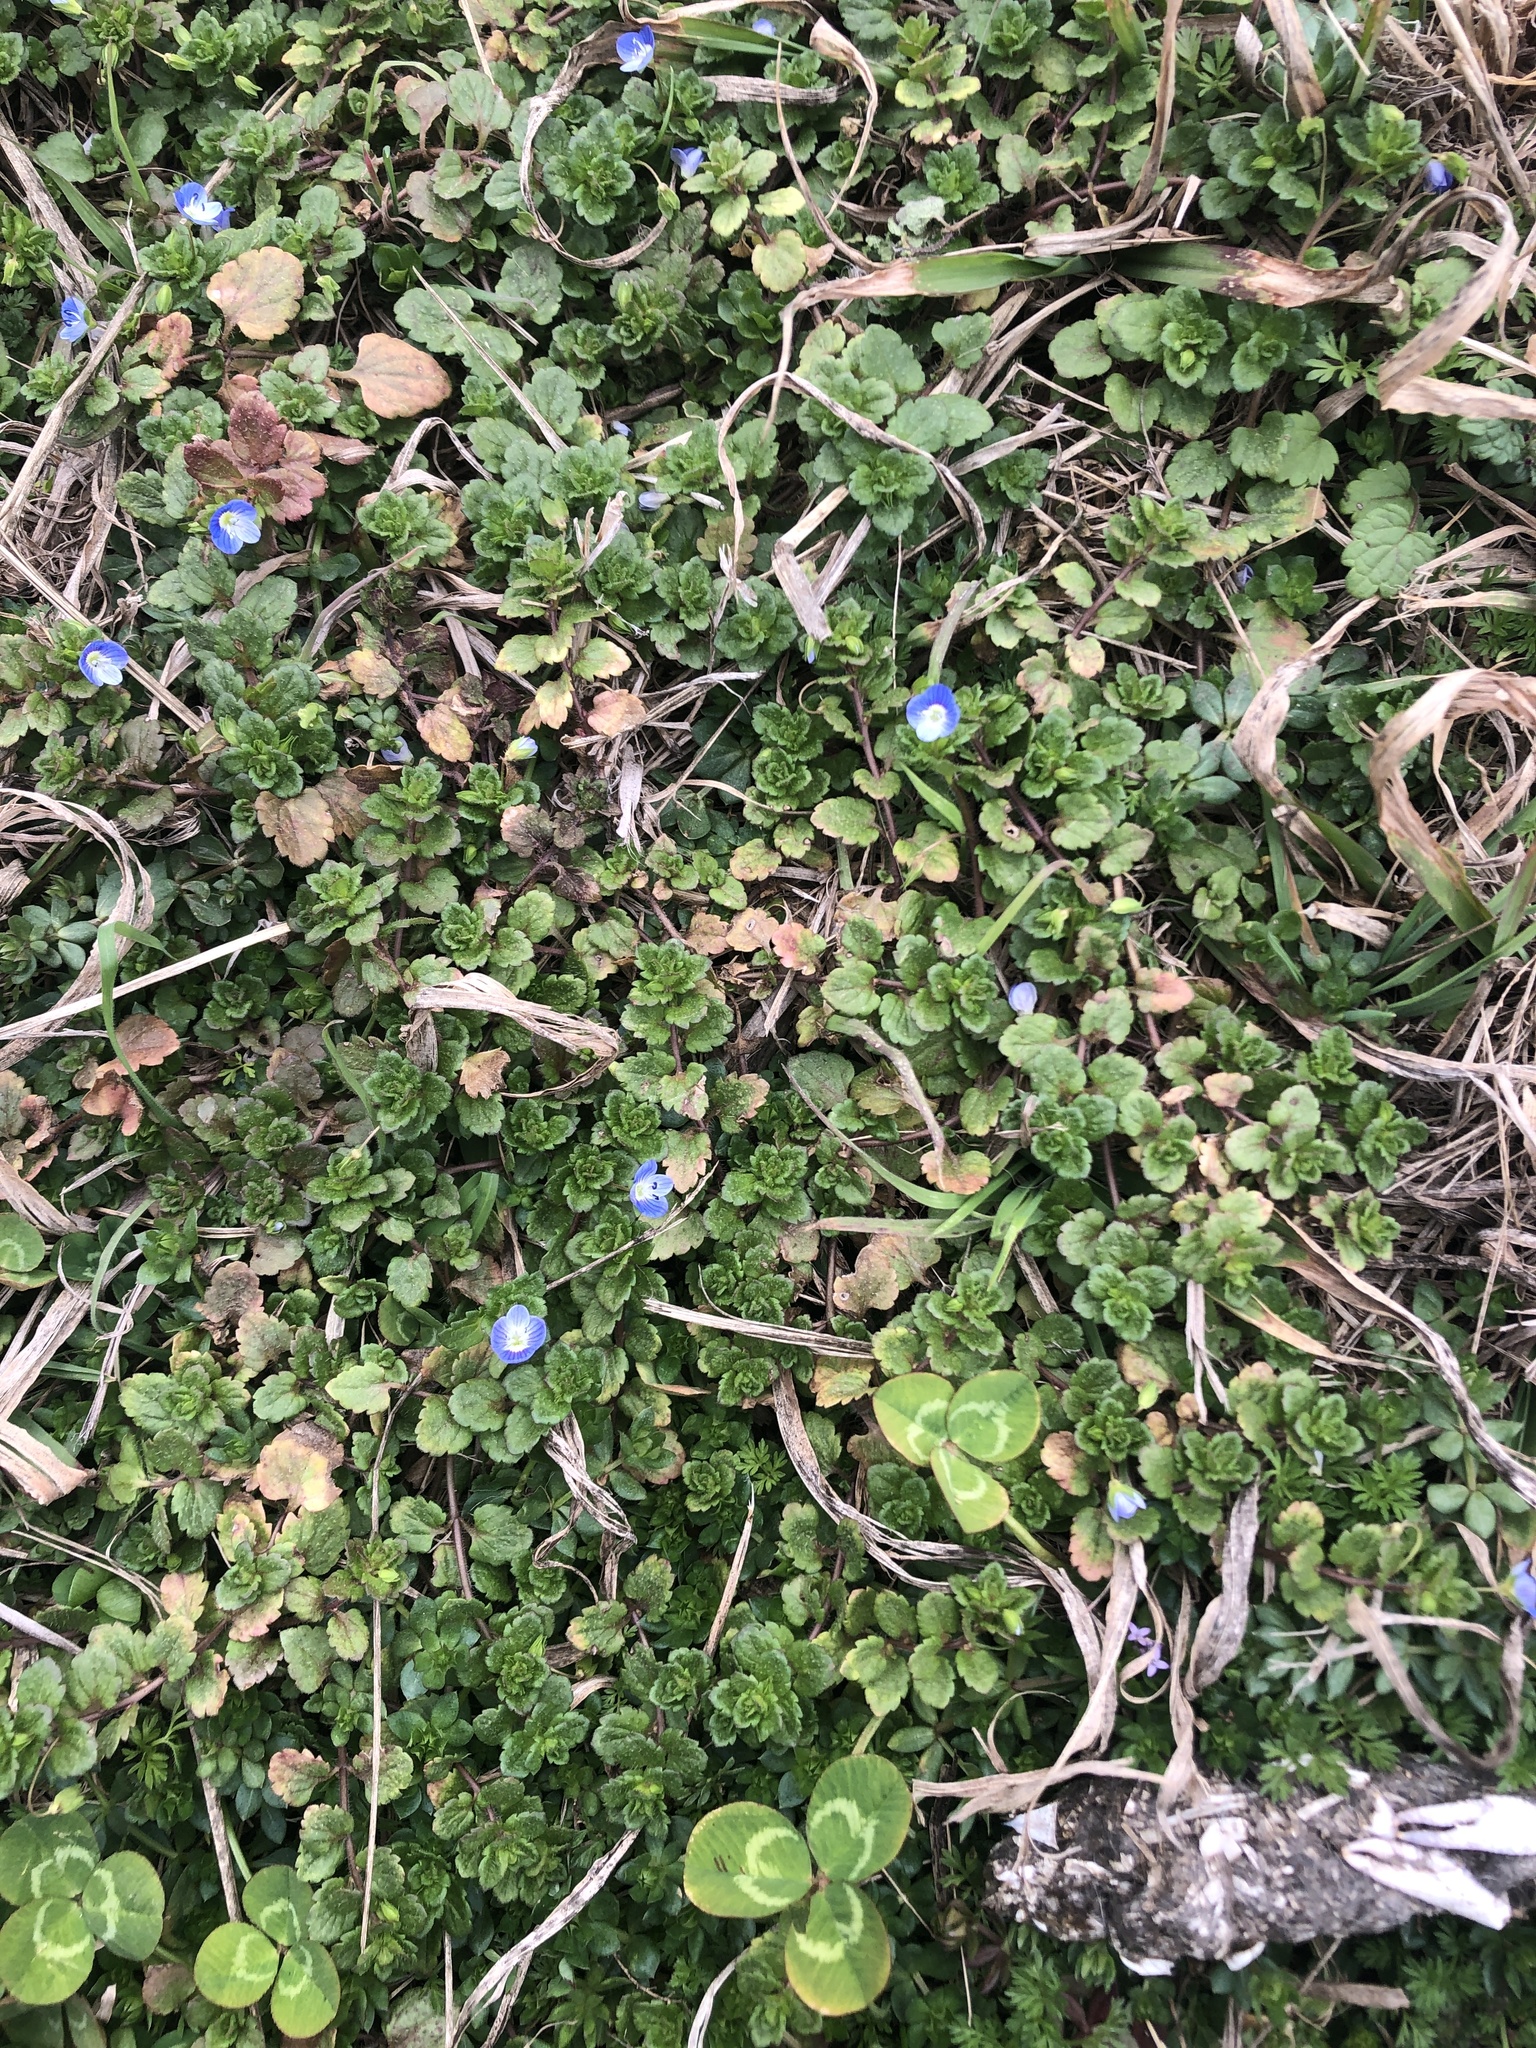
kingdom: Plantae
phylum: Tracheophyta
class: Magnoliopsida
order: Lamiales
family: Plantaginaceae
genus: Veronica
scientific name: Veronica persica
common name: Common field-speedwell
